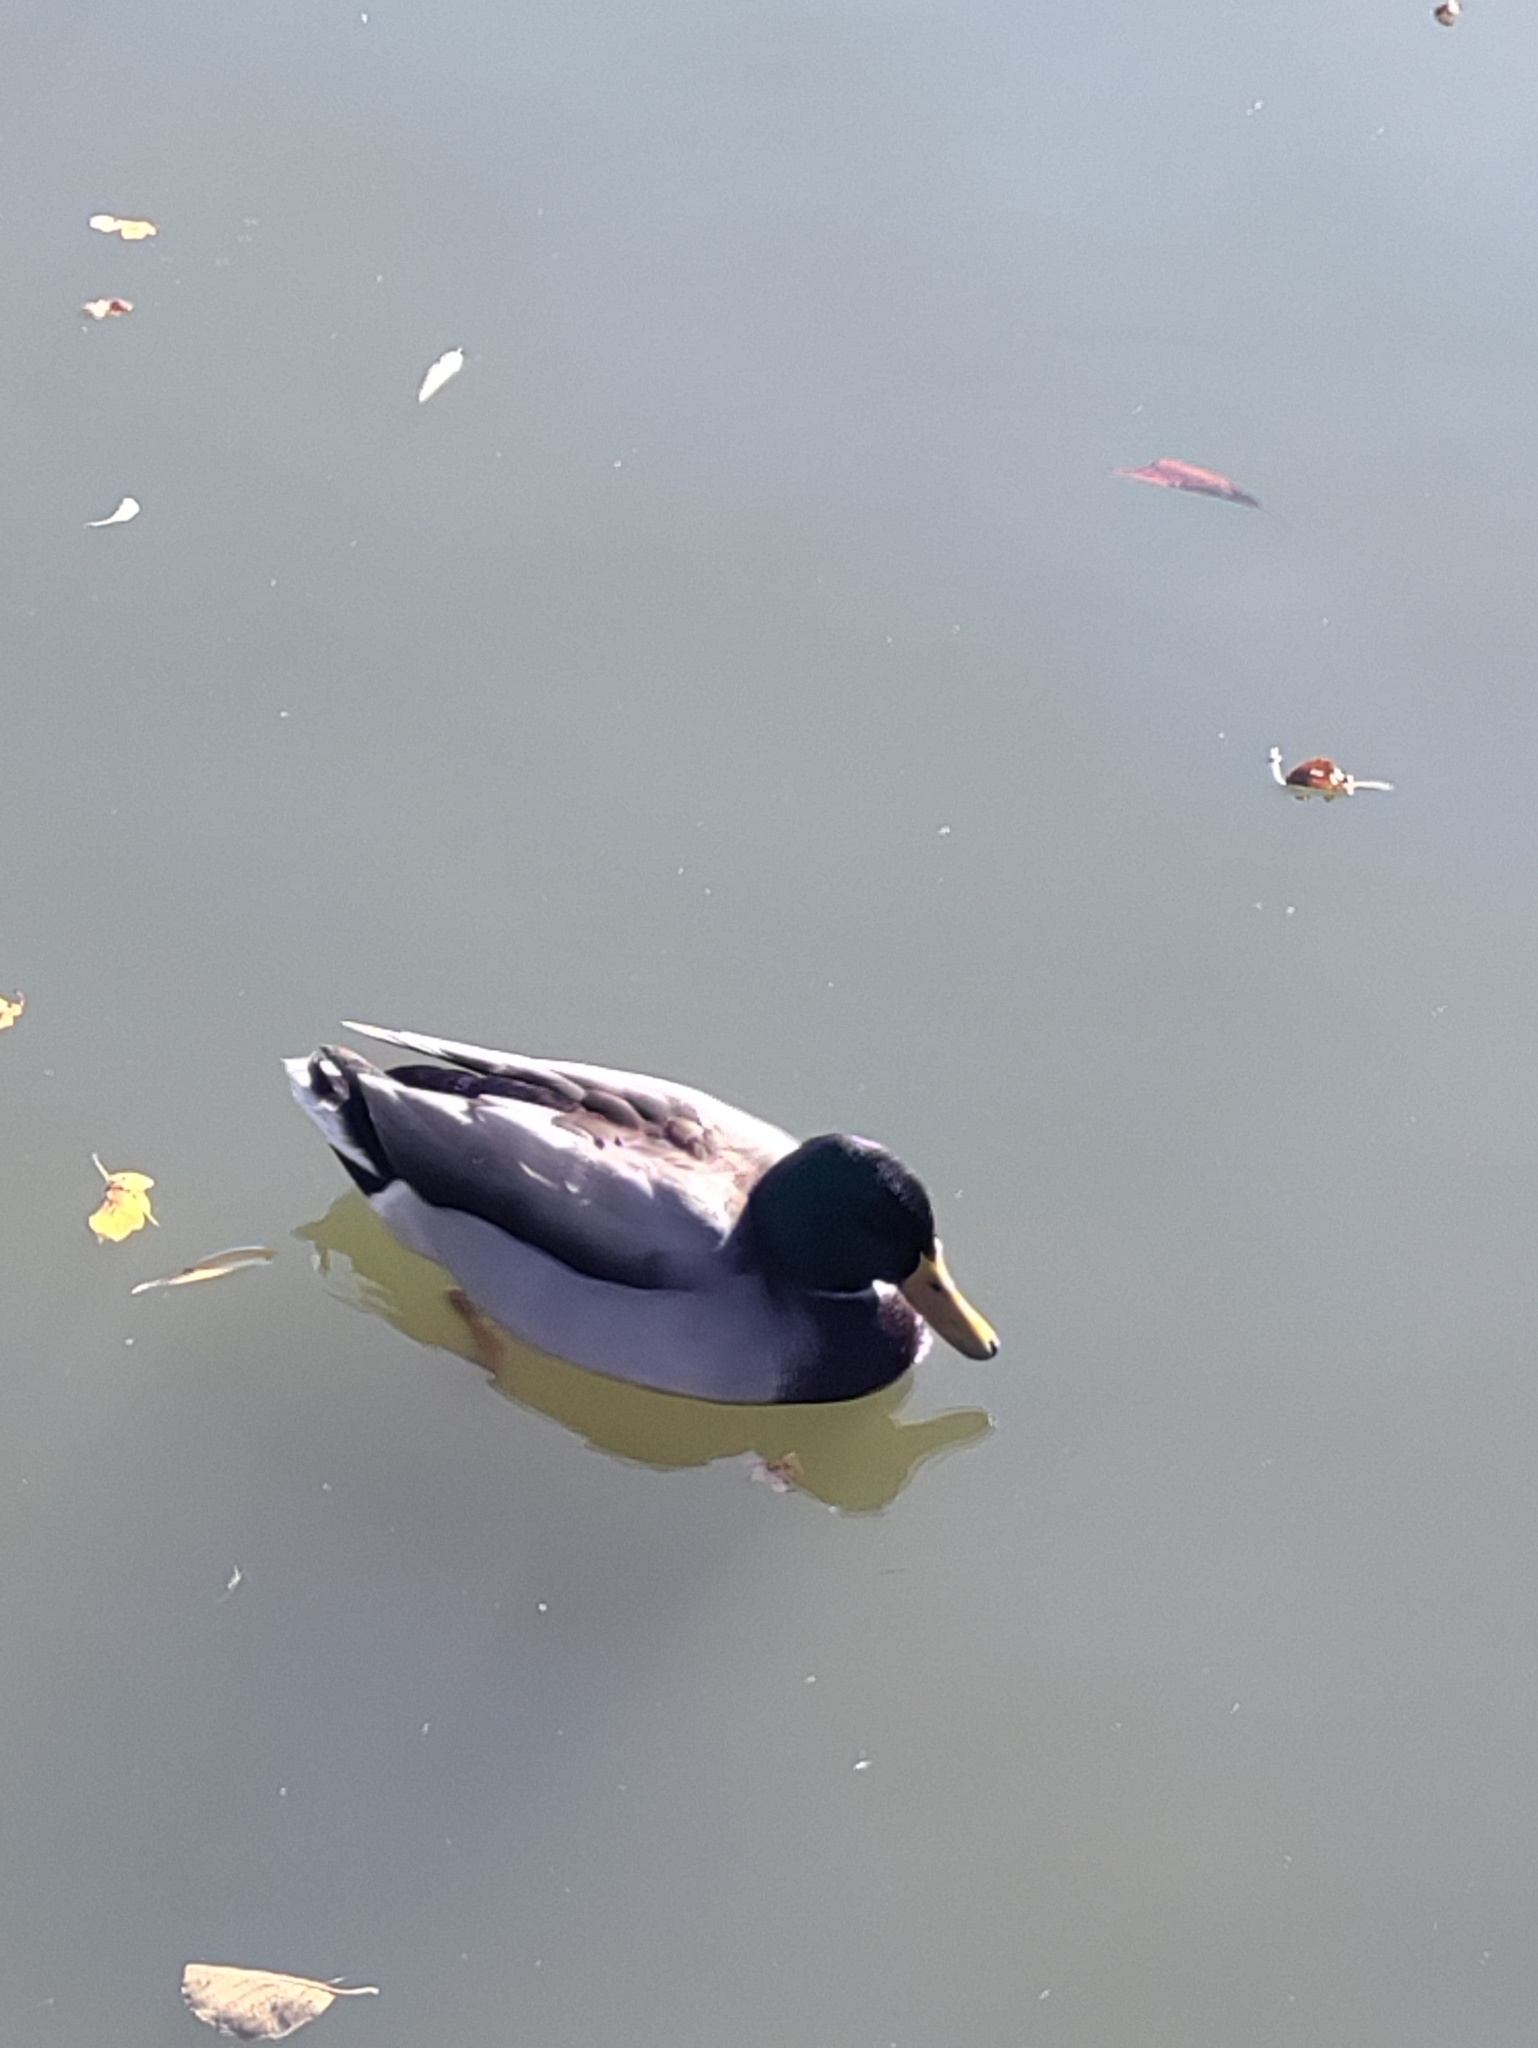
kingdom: Animalia
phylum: Chordata
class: Aves
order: Anseriformes
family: Anatidae
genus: Anas
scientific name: Anas platyrhynchos
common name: Mallard
